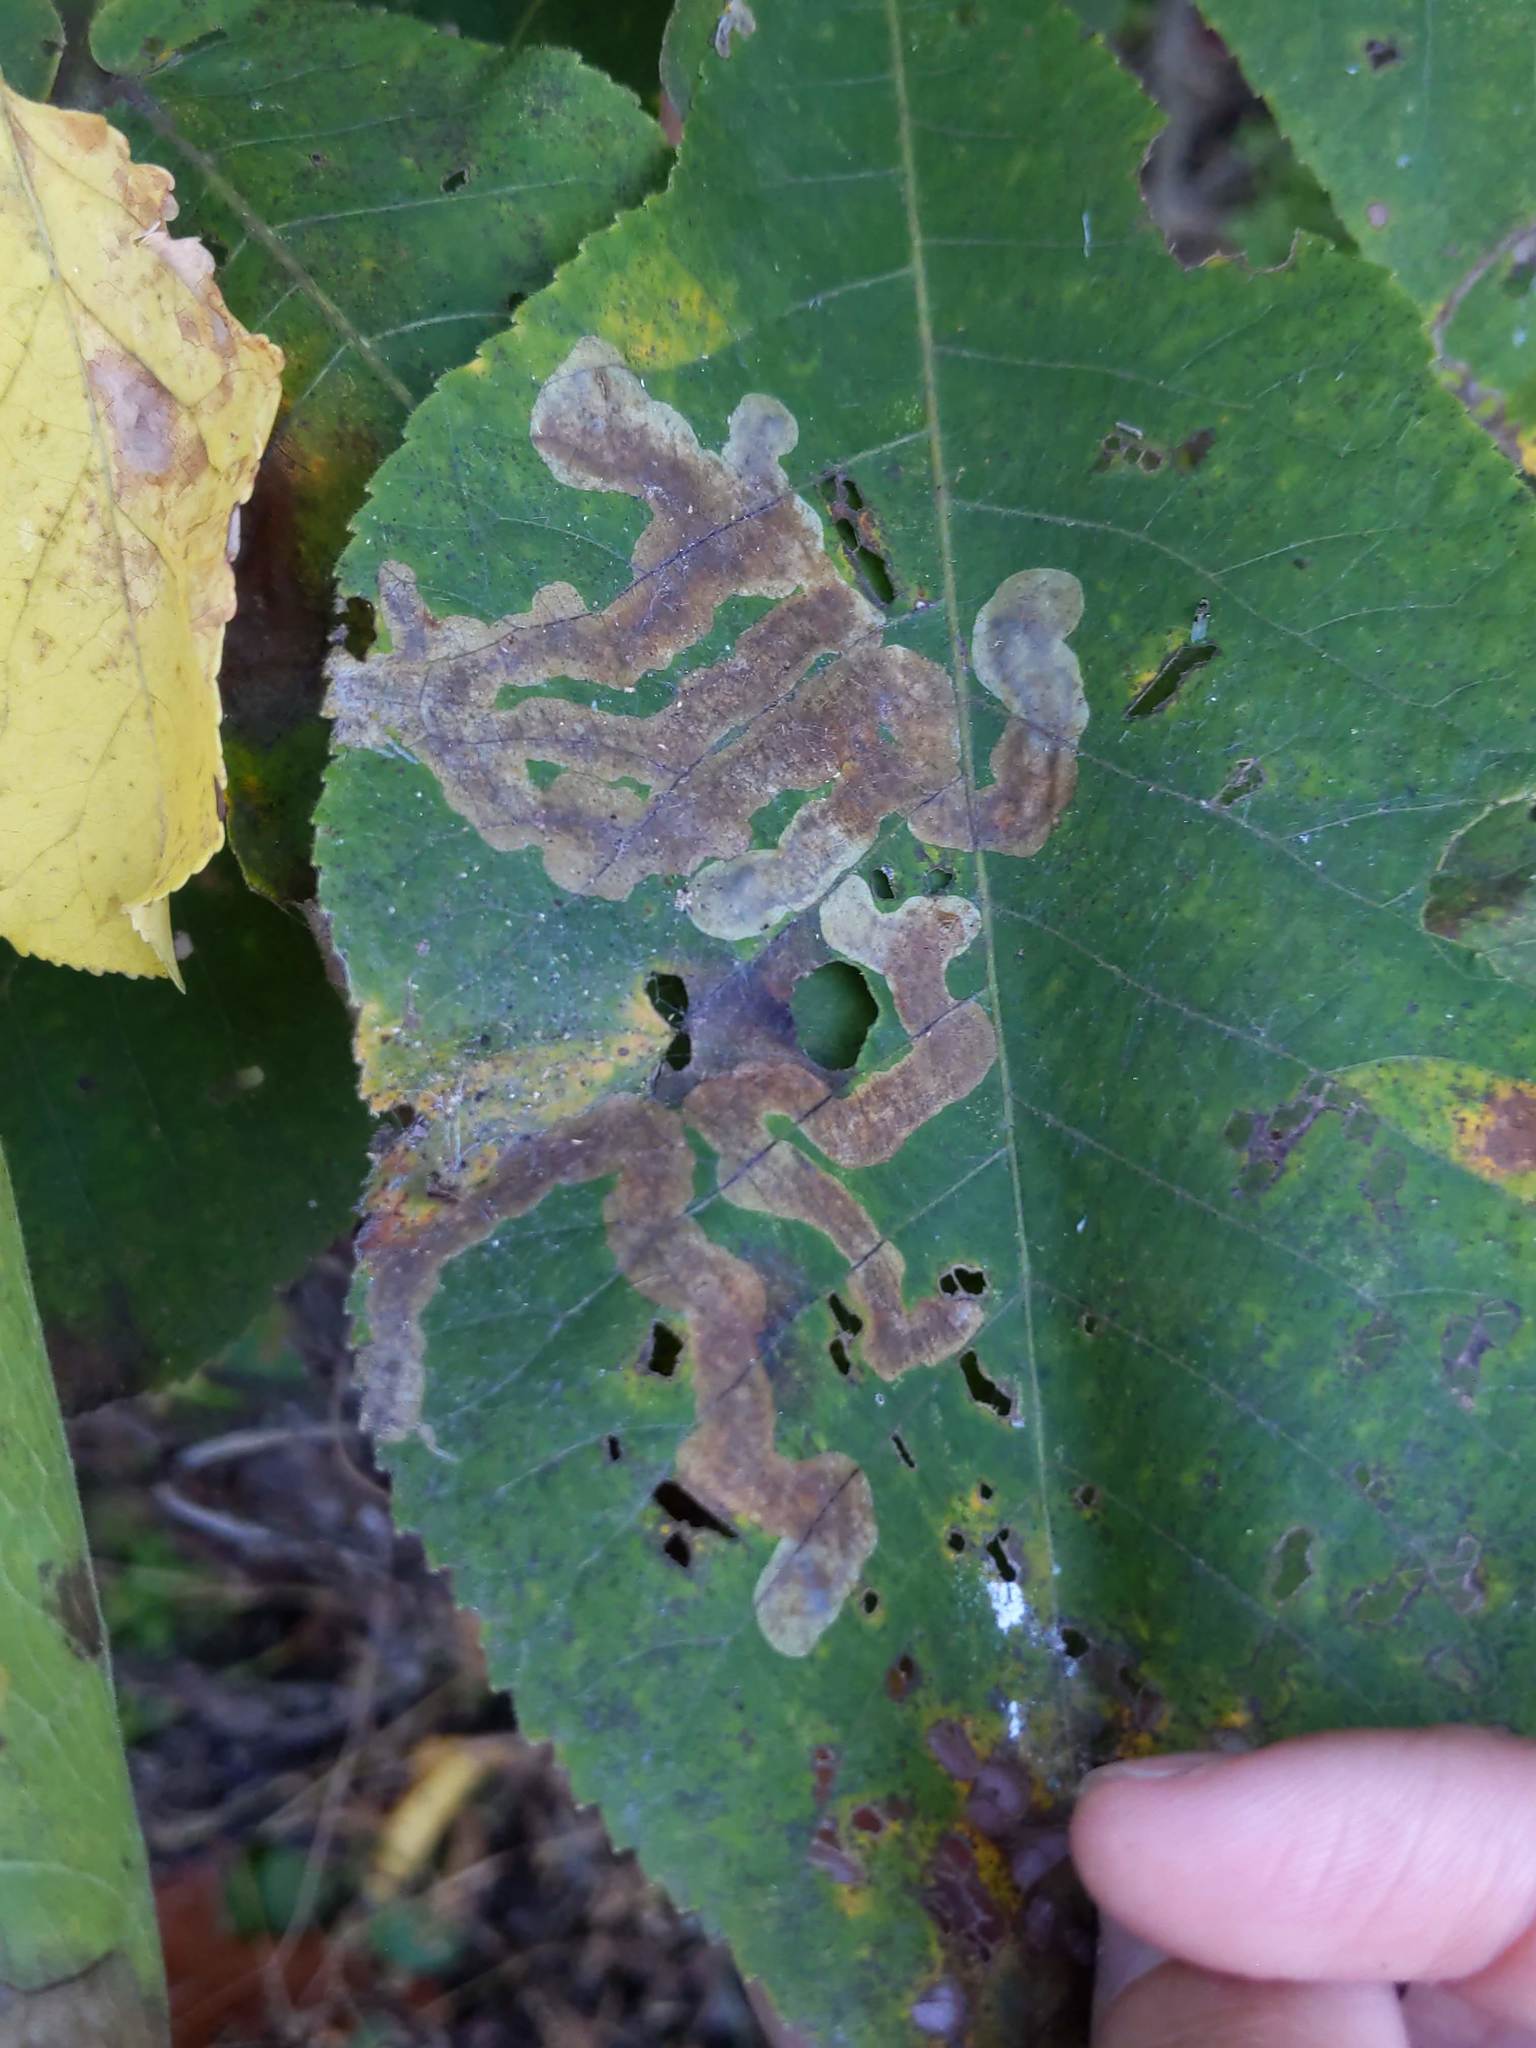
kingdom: Animalia
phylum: Arthropoda
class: Insecta
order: Lepidoptera
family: Gracillariidae
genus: Cameraria
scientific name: Cameraria caryaefoliella
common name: Pecan leafminer moth
